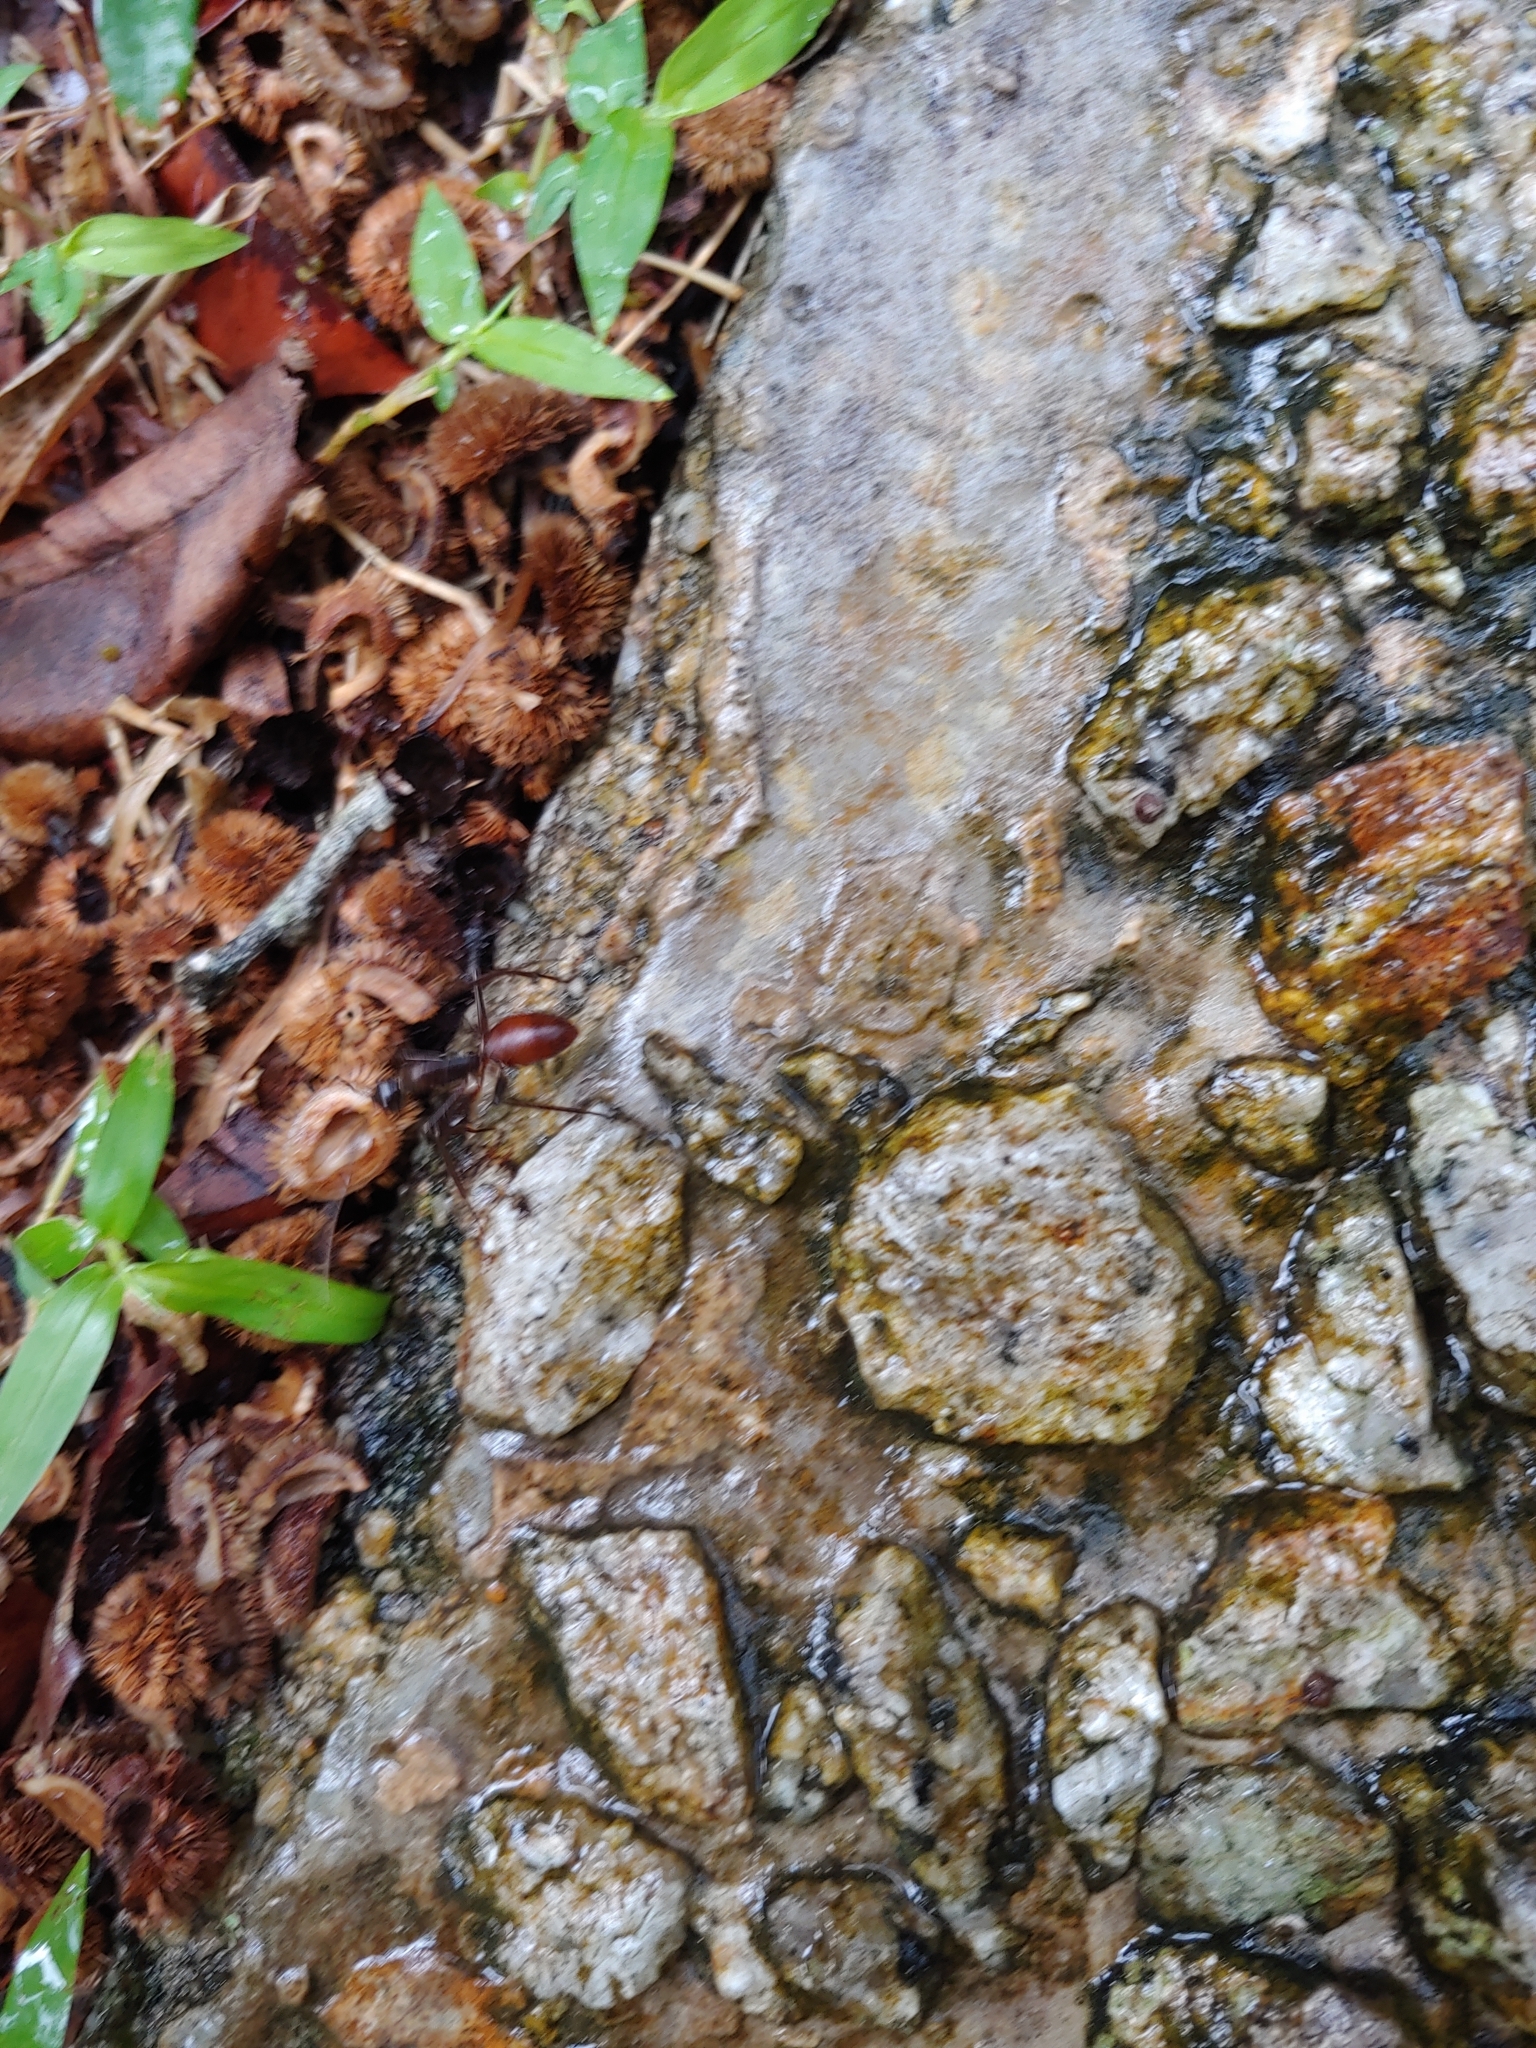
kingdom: Animalia
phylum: Arthropoda
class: Insecta
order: Hymenoptera
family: Formicidae
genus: Dinomyrmex
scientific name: Dinomyrmex
